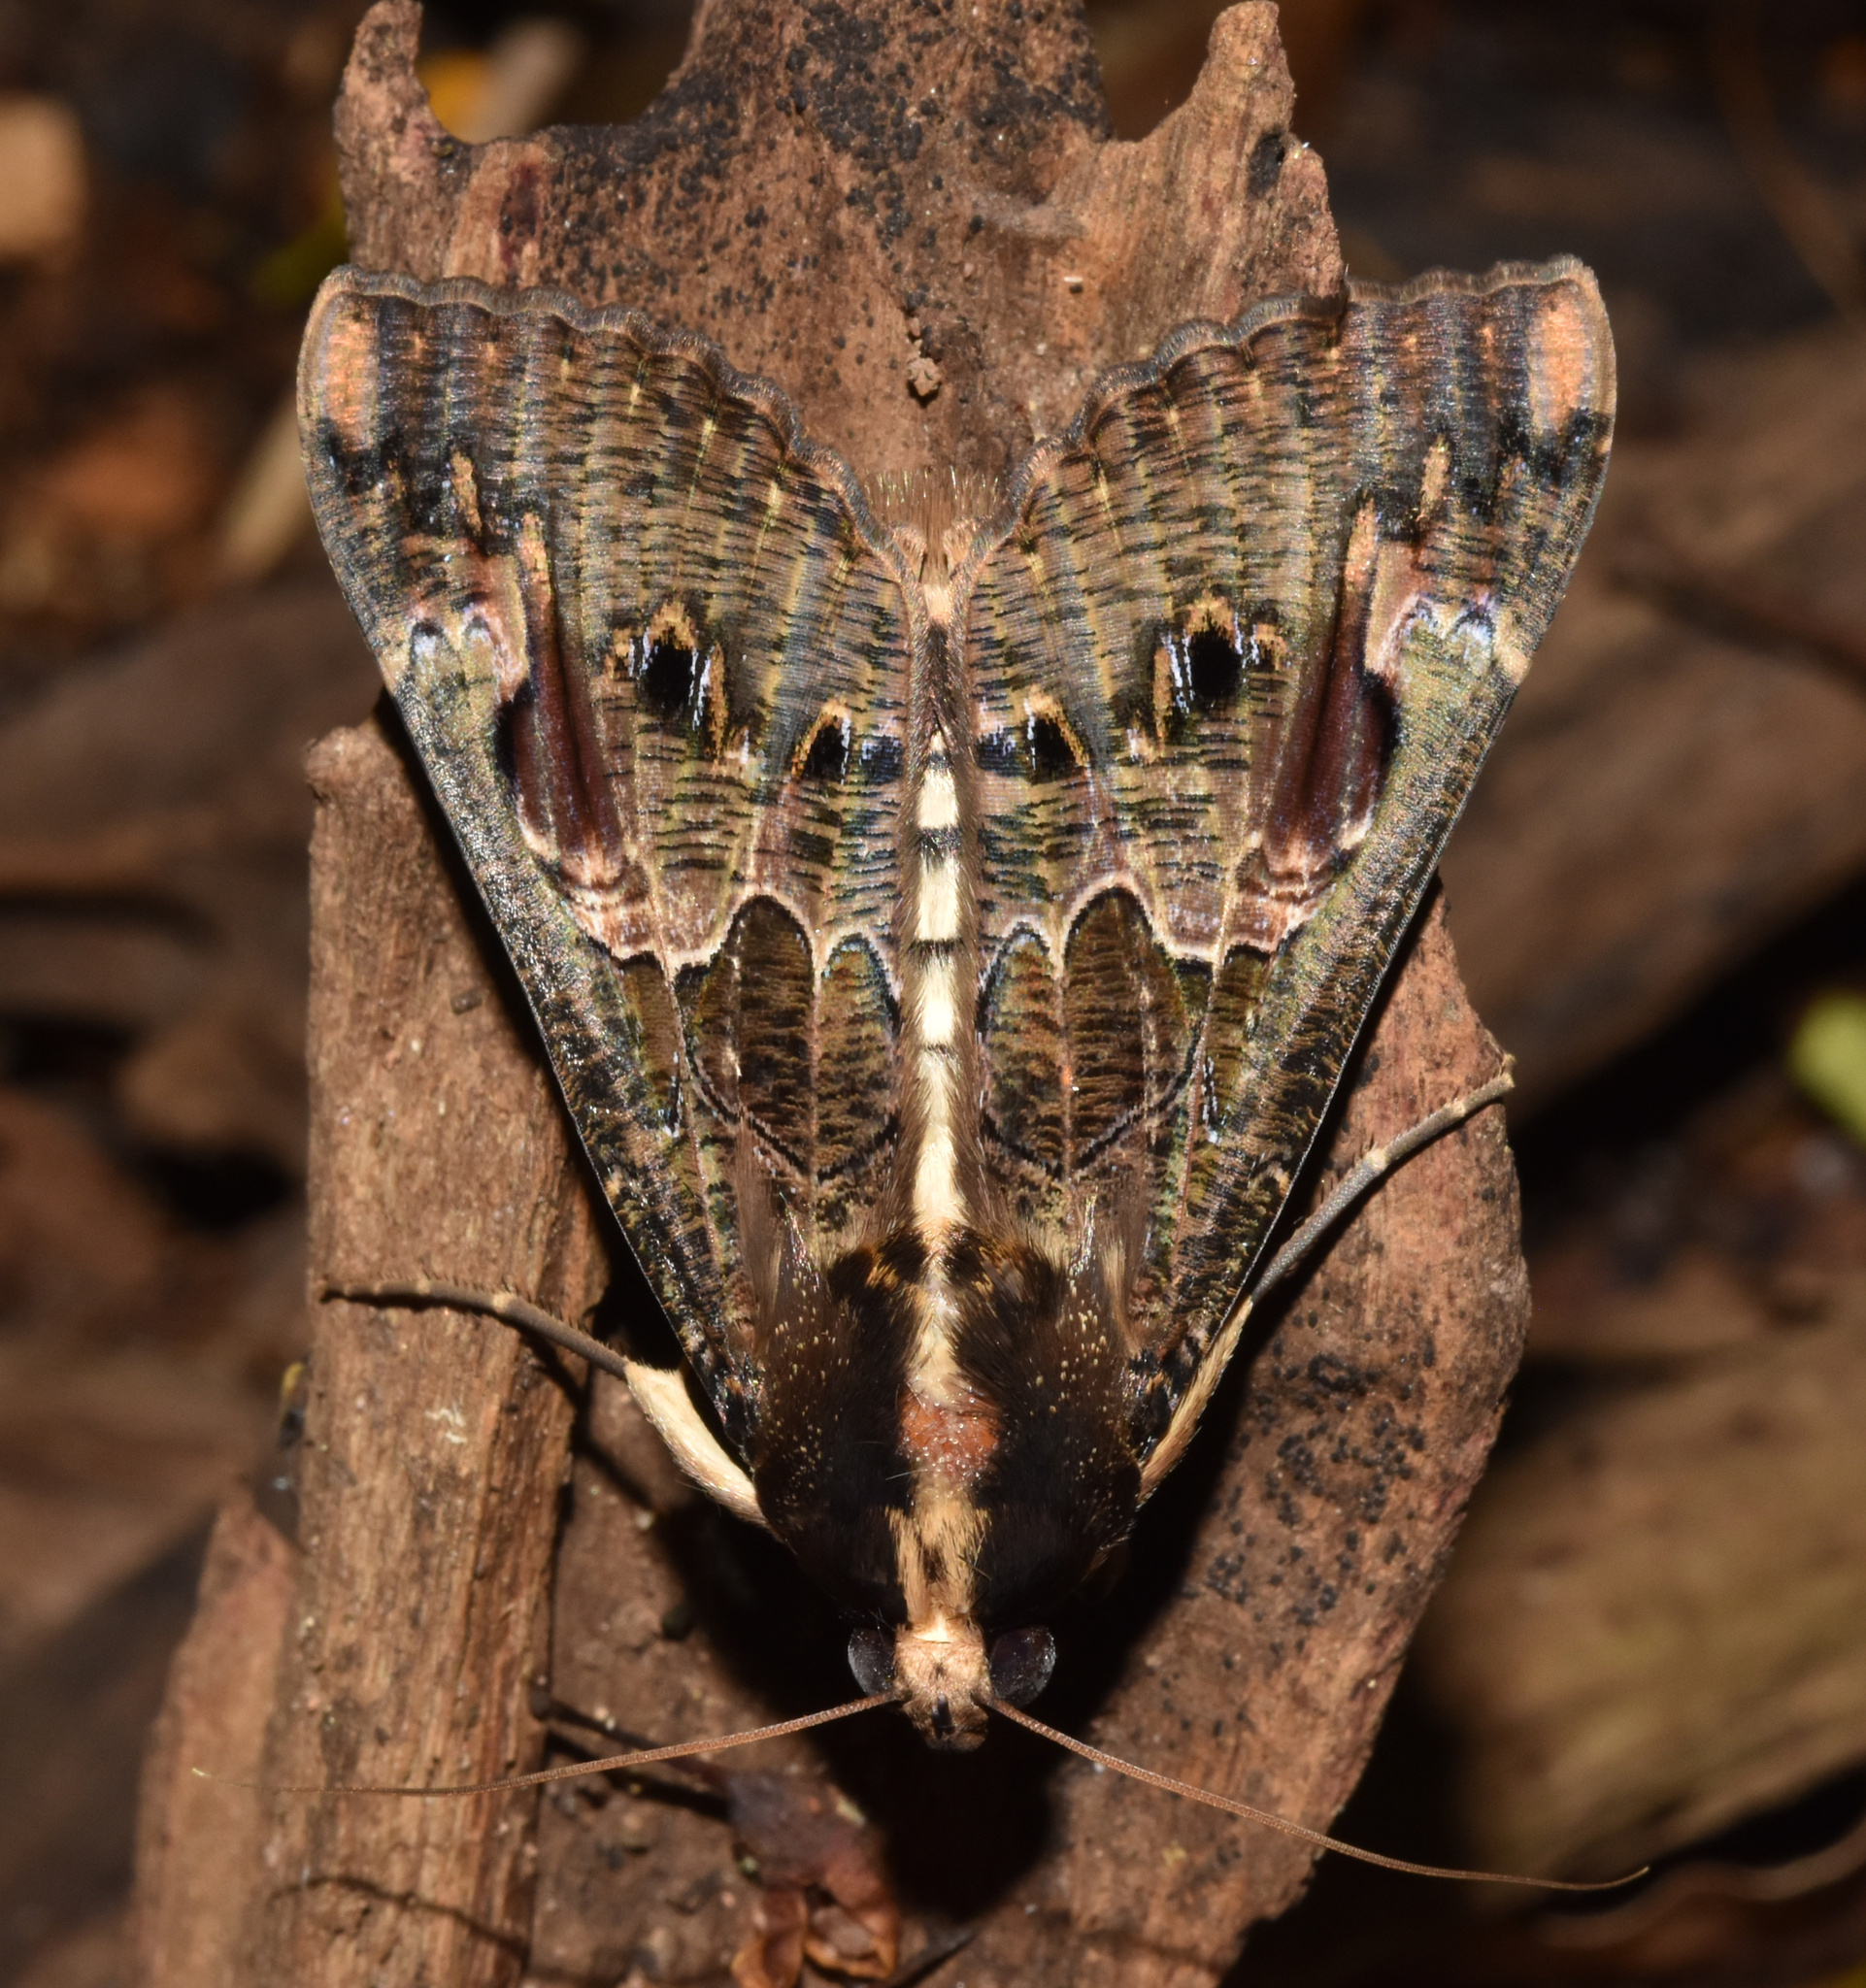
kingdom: Animalia
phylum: Arthropoda
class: Insecta
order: Lepidoptera
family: Erebidae
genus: Sphingomorpha
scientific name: Sphingomorpha chlorea
